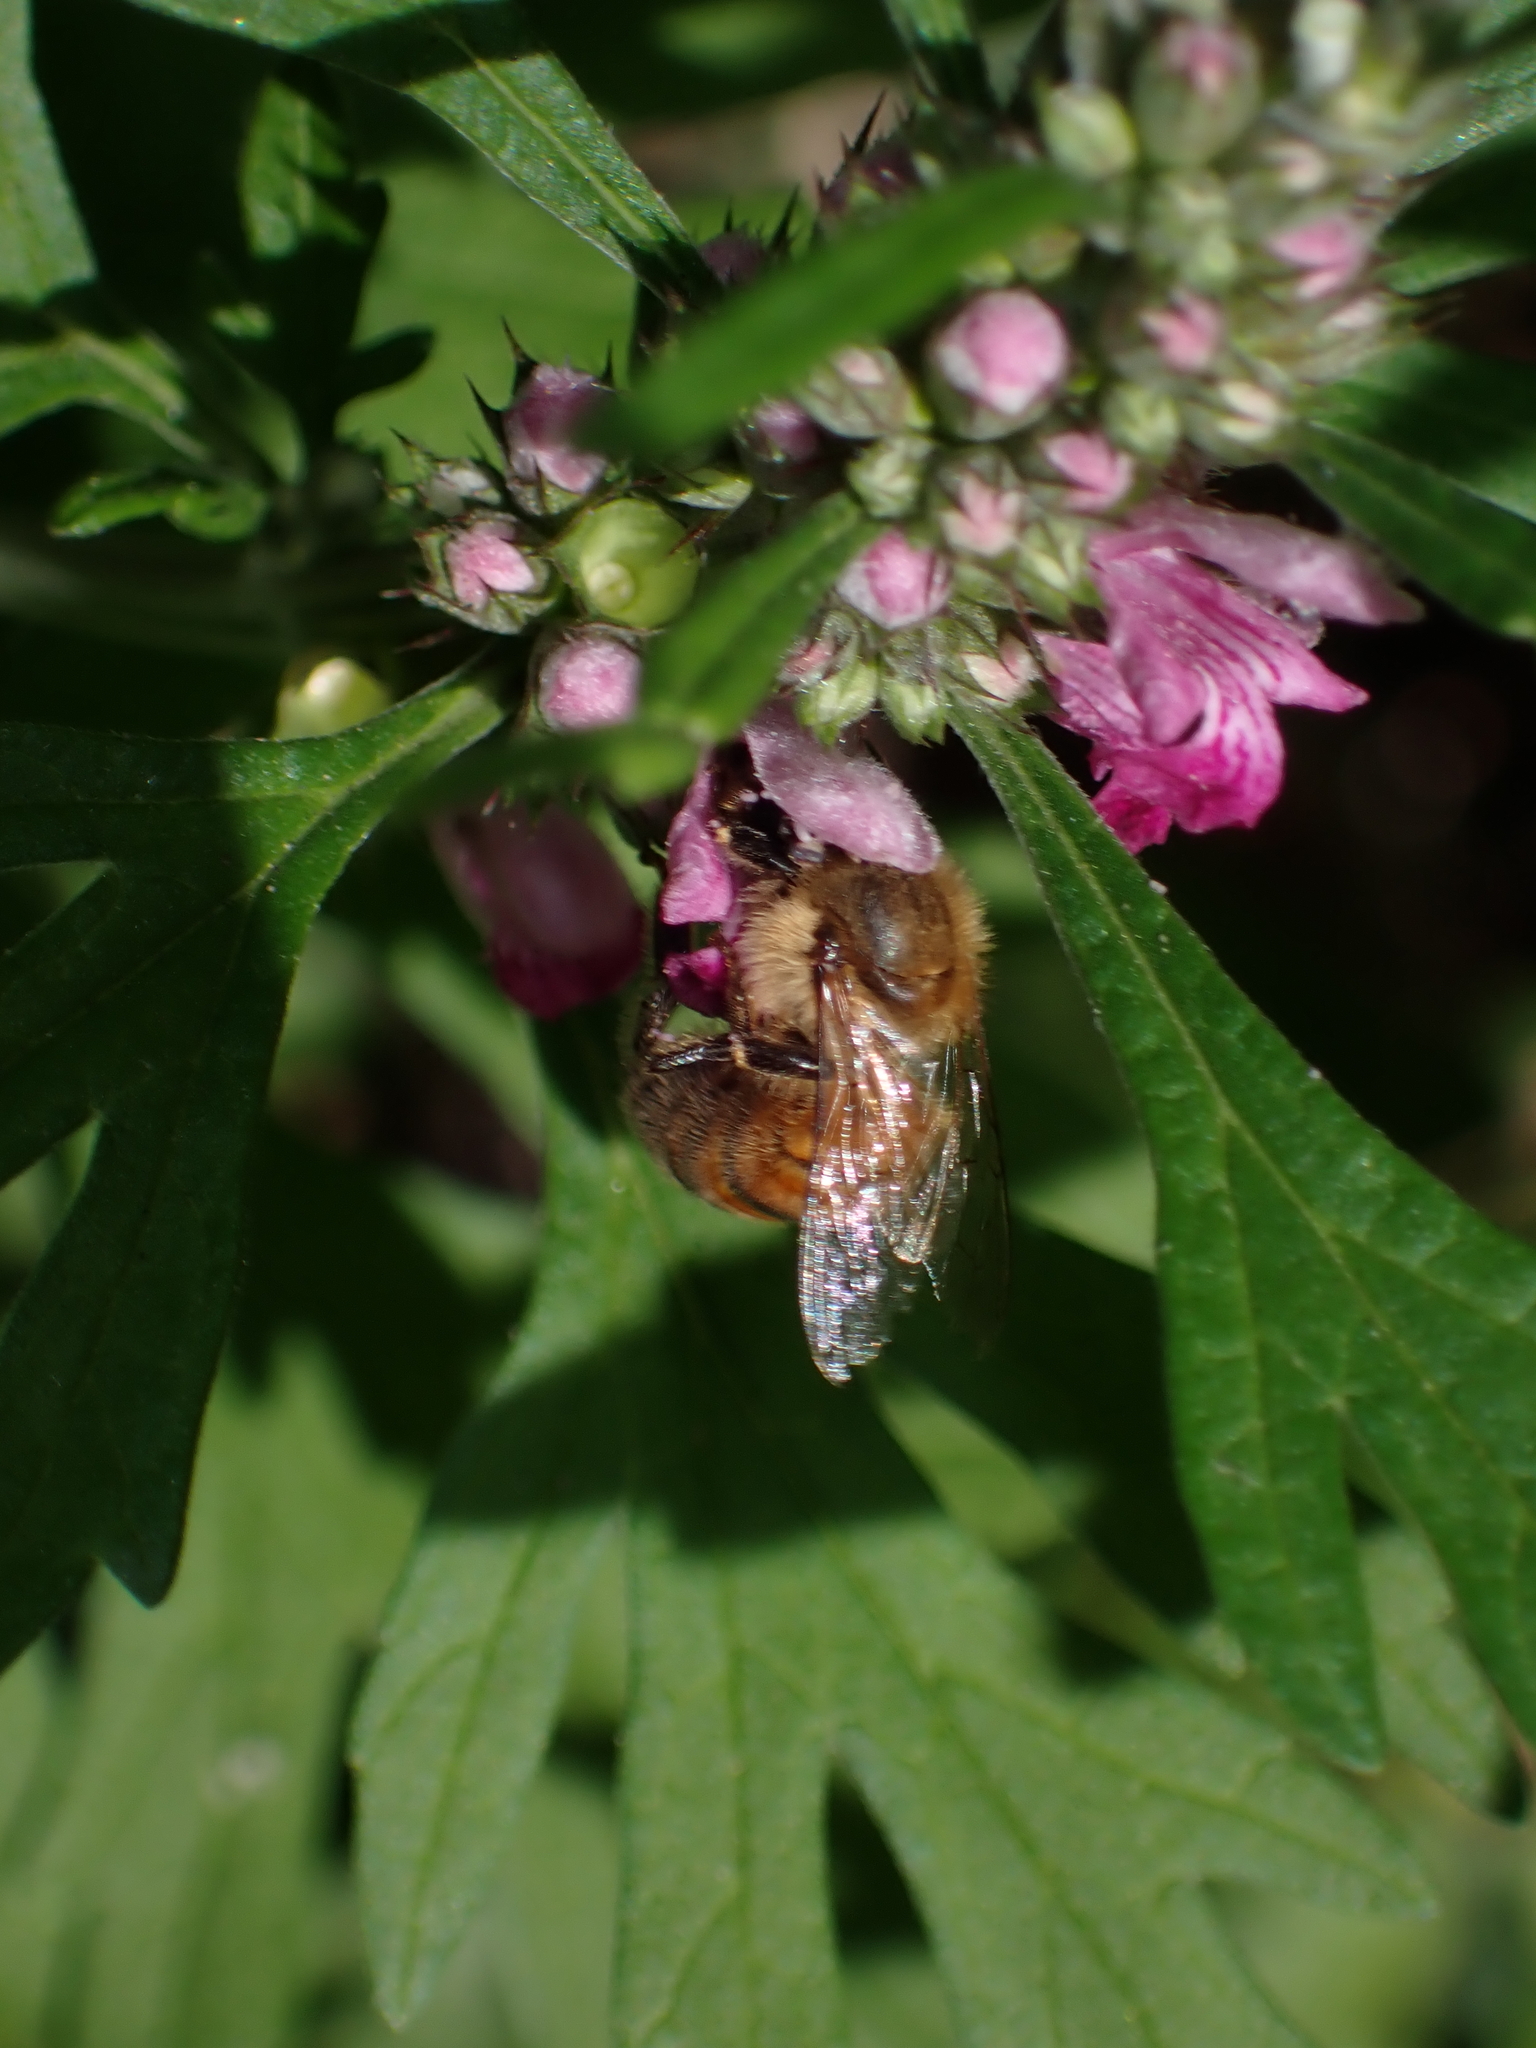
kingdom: Animalia
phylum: Arthropoda
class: Insecta
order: Hymenoptera
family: Apidae
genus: Apis
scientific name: Apis mellifera
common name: Honey bee
